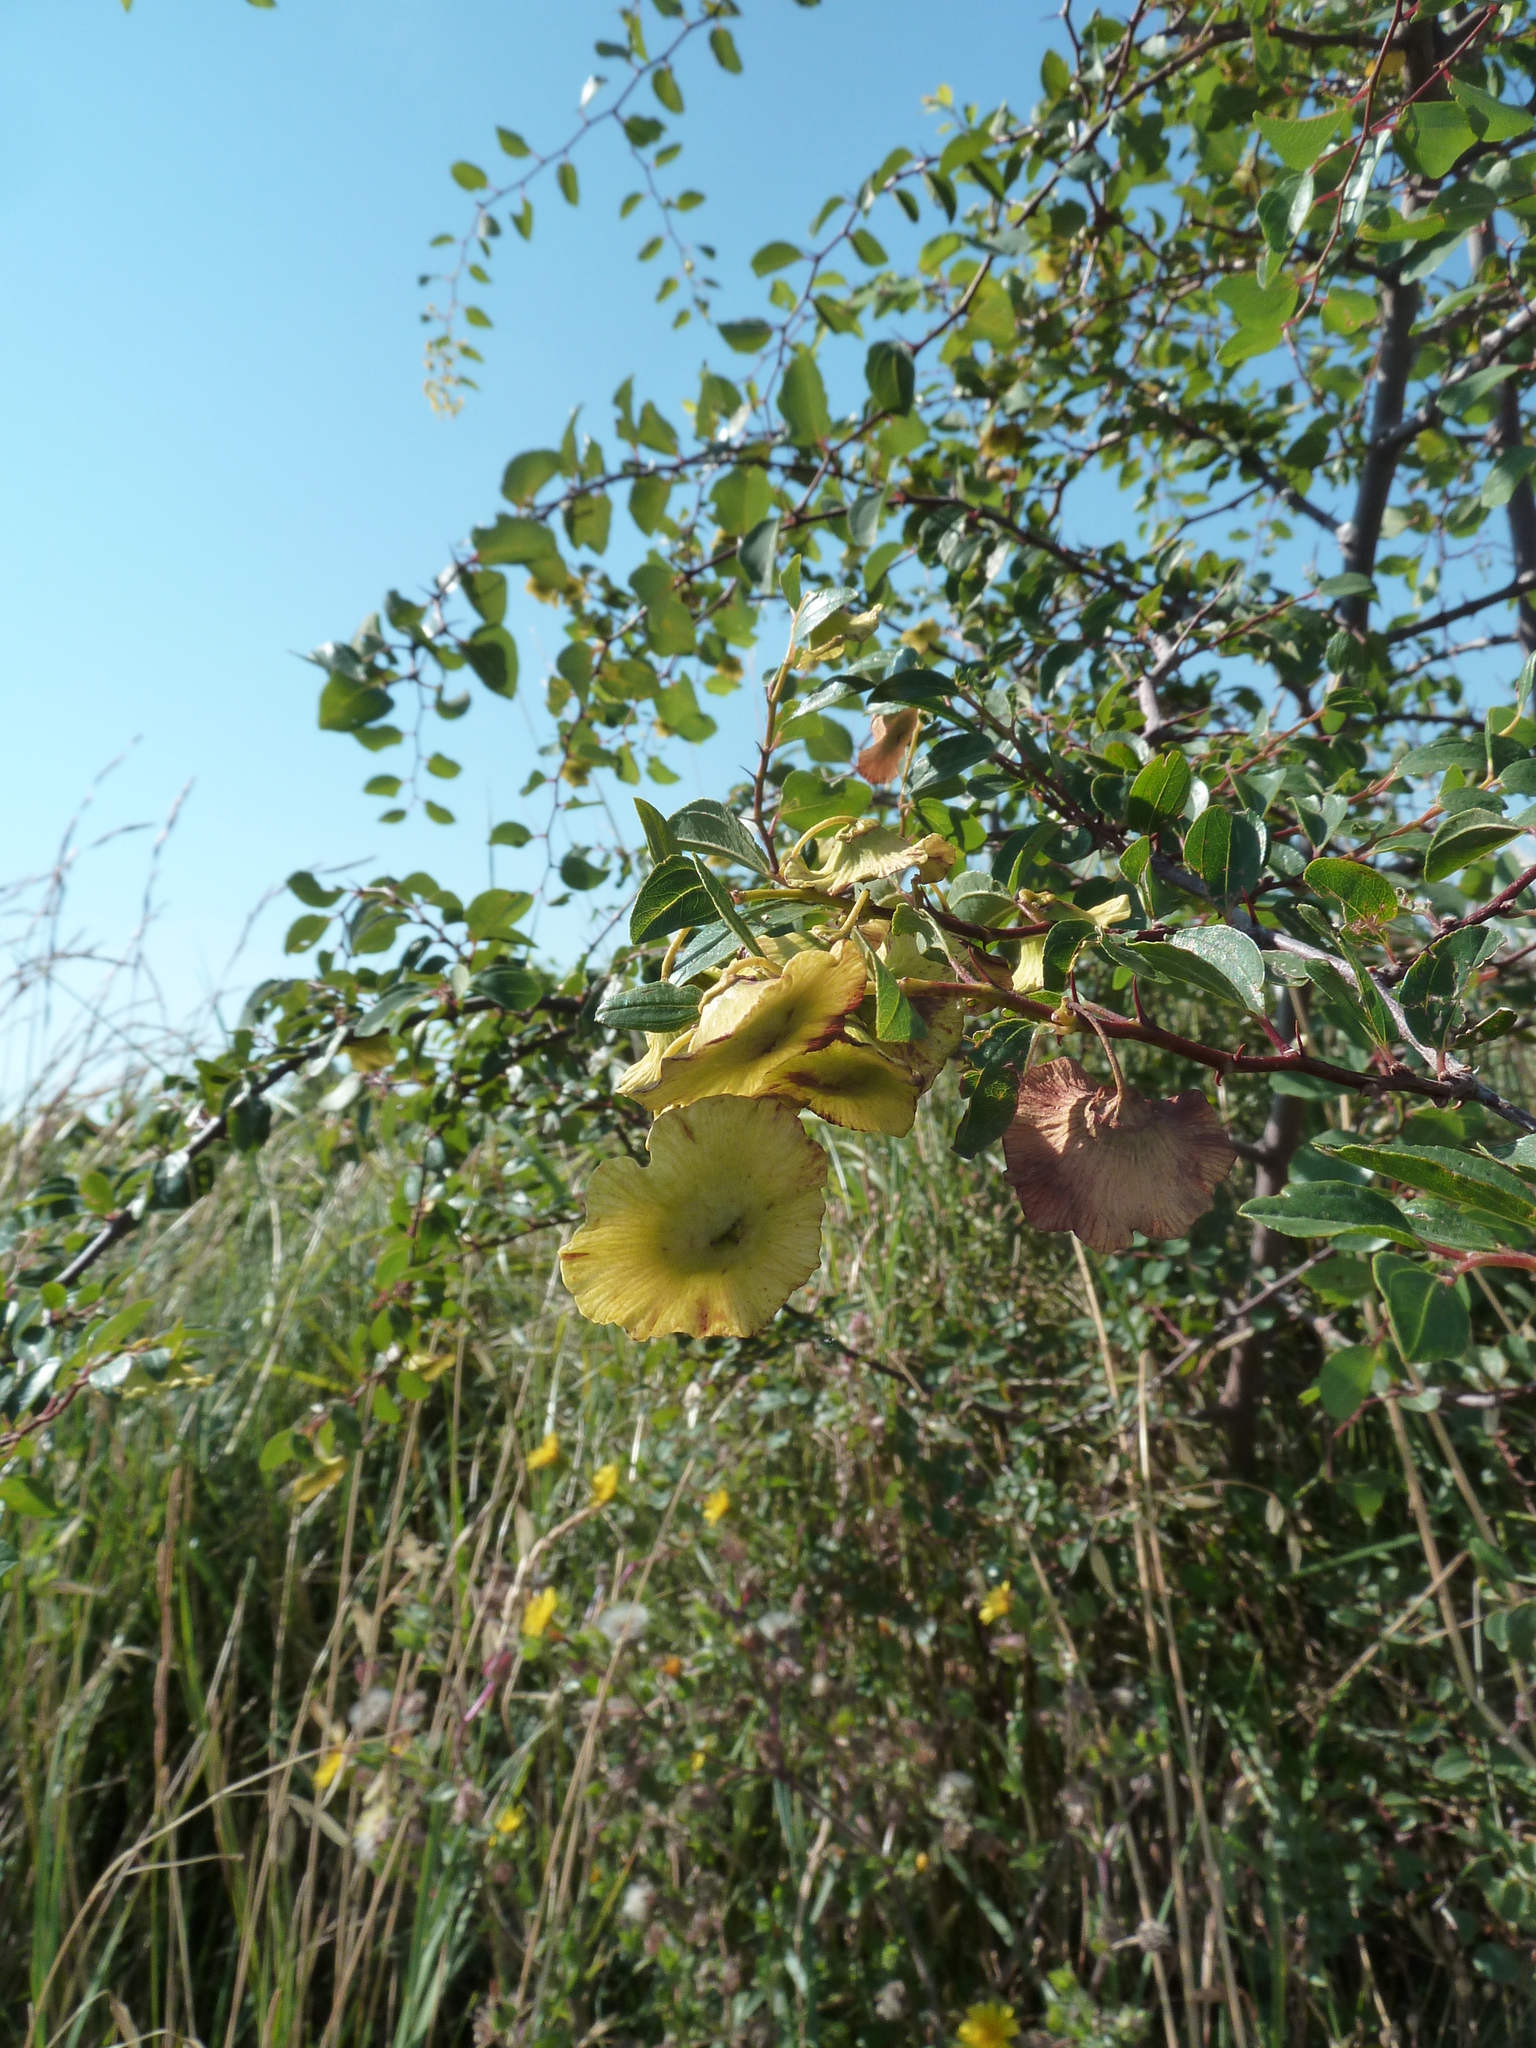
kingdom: Plantae
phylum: Tracheophyta
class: Magnoliopsida
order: Rosales
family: Rhamnaceae
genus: Paliurus
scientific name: Paliurus spina-christi
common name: Jeruselem thorn
